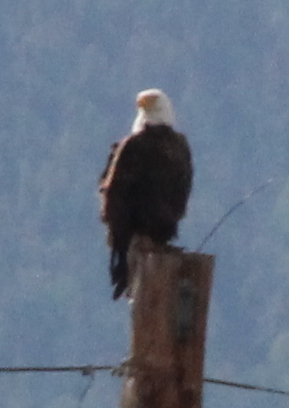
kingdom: Animalia
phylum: Chordata
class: Aves
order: Accipitriformes
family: Accipitridae
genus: Haliaeetus
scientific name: Haliaeetus leucocephalus
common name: Bald eagle
